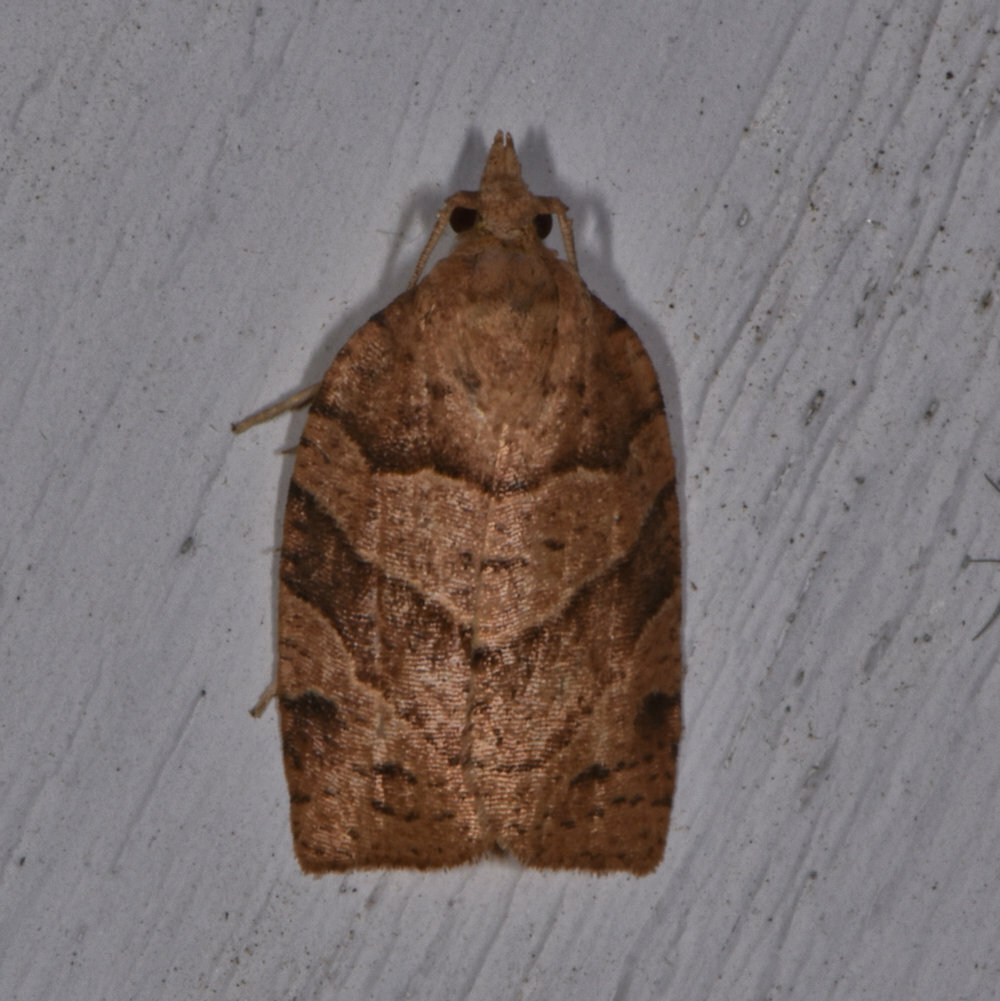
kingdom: Animalia
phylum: Arthropoda
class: Insecta
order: Lepidoptera
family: Tortricidae
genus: Pandemis
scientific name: Pandemis lamprosana
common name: Woodgrain leafroller moth
